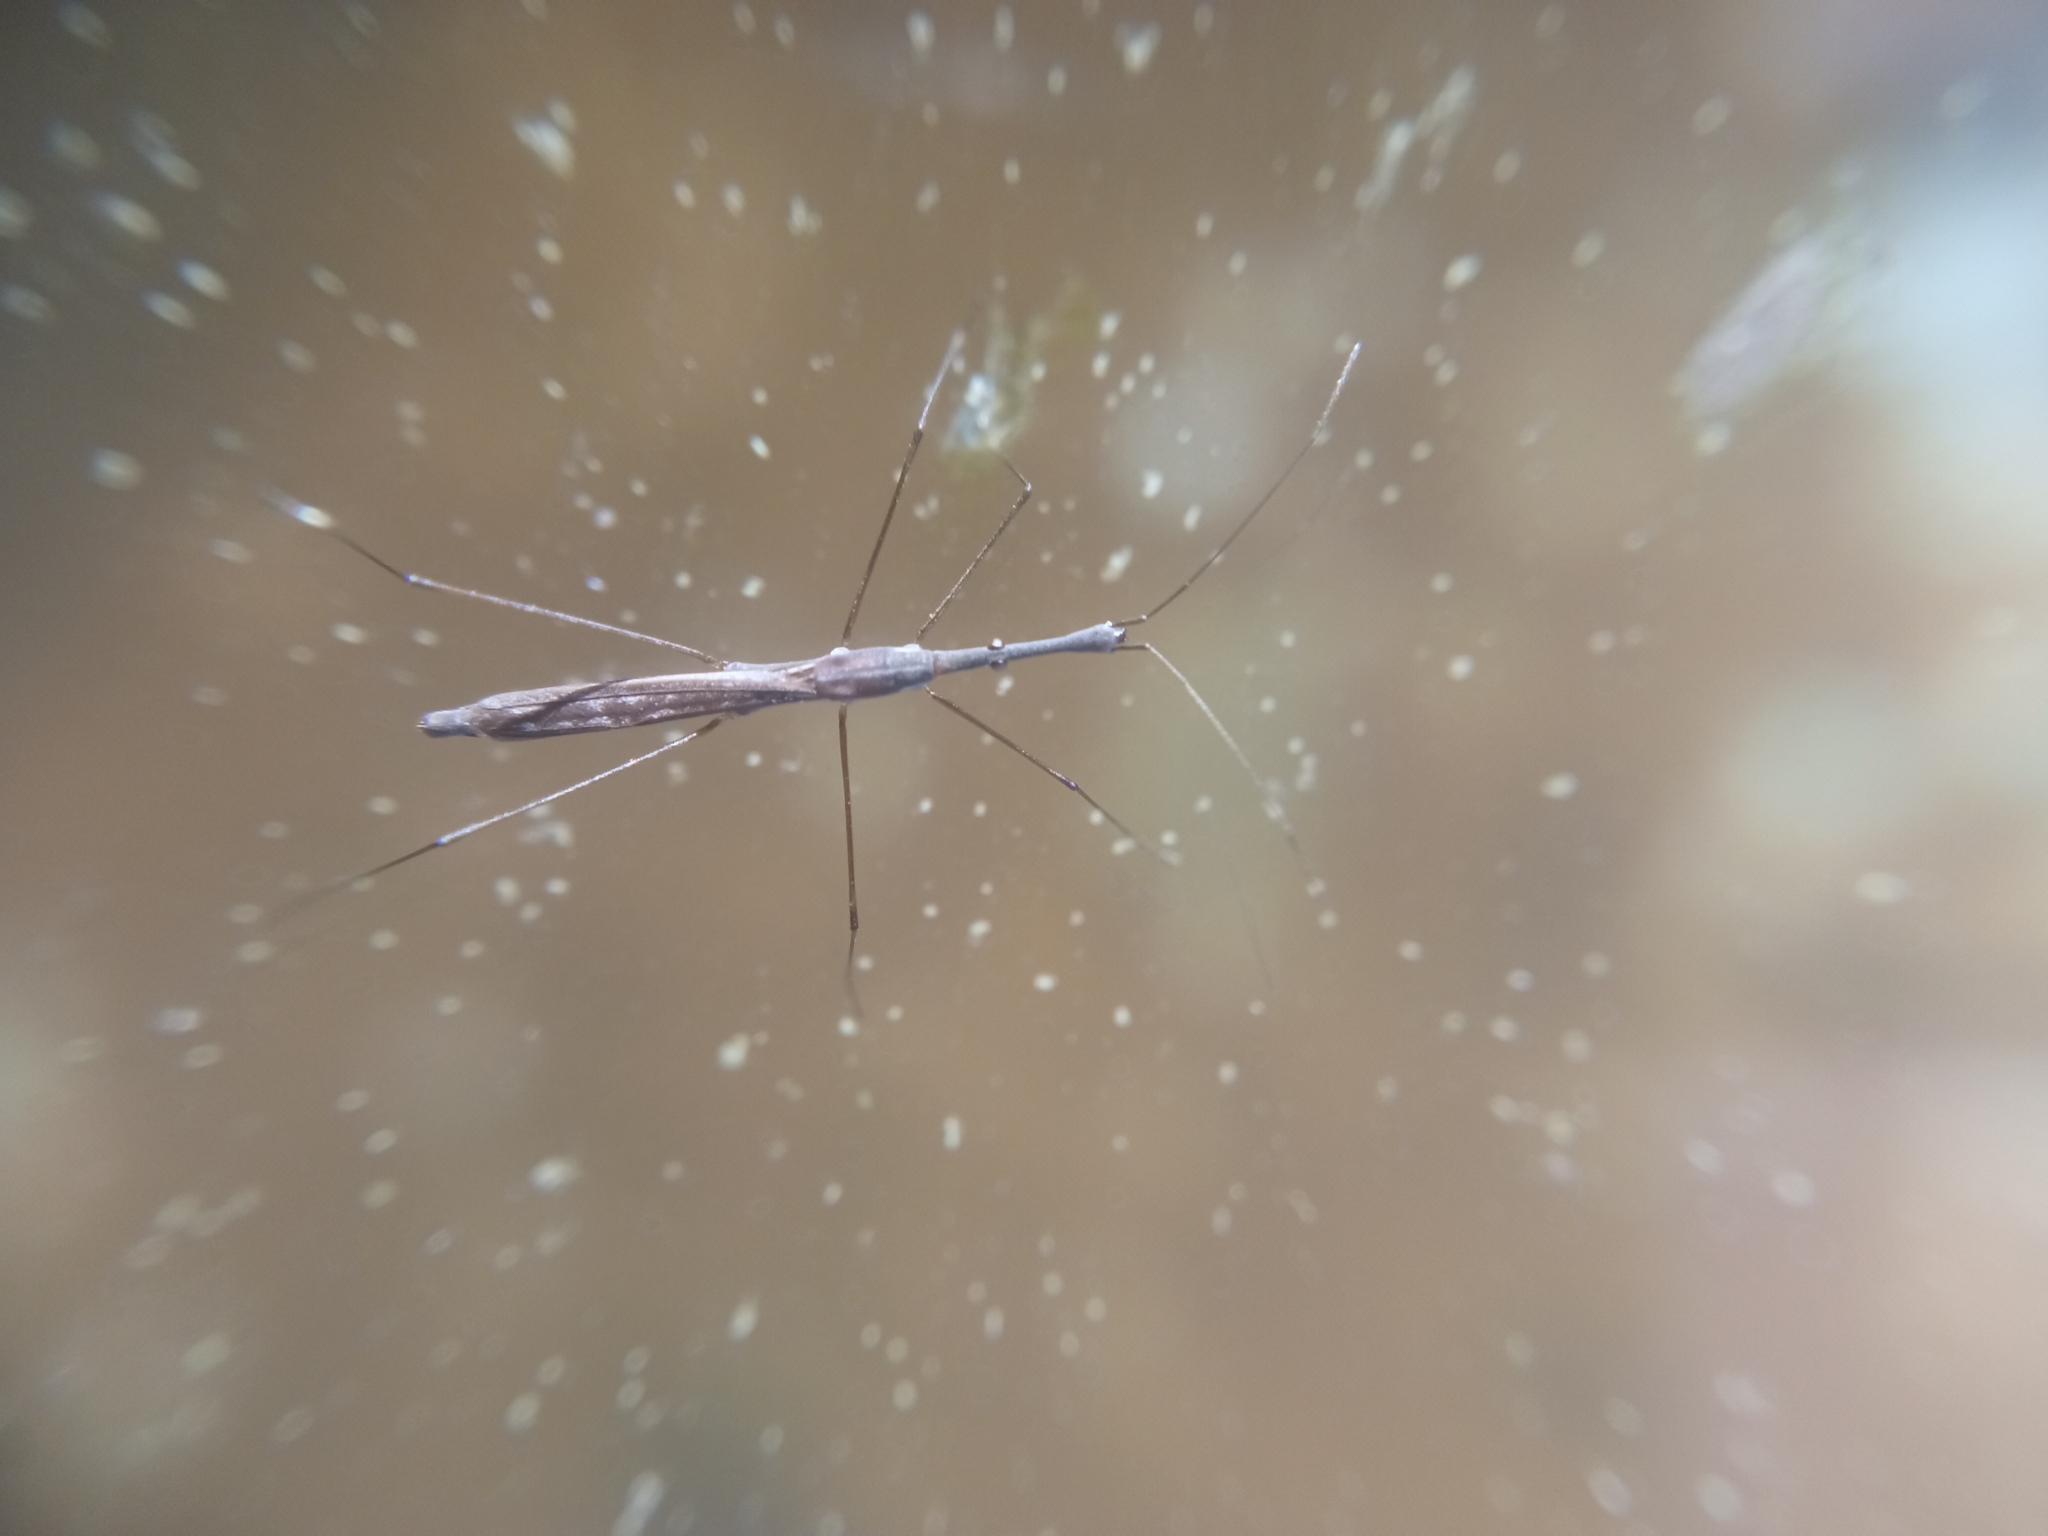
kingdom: Animalia
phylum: Arthropoda
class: Insecta
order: Hemiptera
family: Hydrometridae
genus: Hydrometra
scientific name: Hydrometra stagnorum
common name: Water measurer
